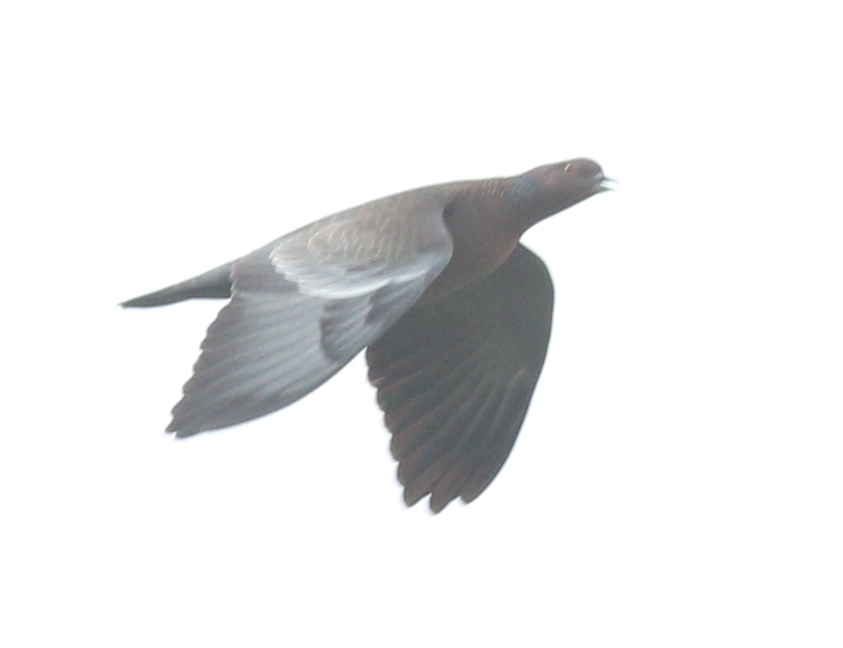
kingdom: Animalia
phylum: Chordata
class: Aves
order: Columbiformes
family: Columbidae
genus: Patagioenas
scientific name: Patagioenas picazuro
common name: Picazuro pigeon
